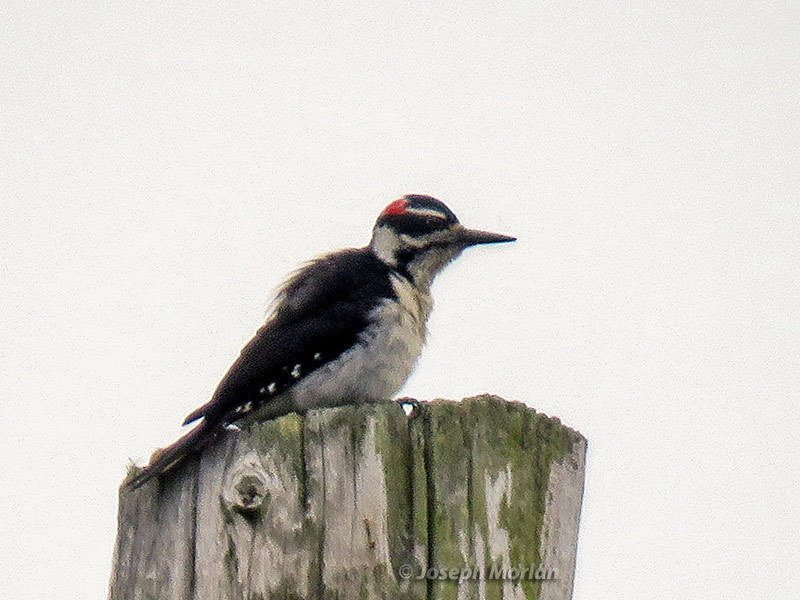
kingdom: Animalia
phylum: Chordata
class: Aves
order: Piciformes
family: Picidae
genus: Leuconotopicus
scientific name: Leuconotopicus villosus
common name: Hairy woodpecker
